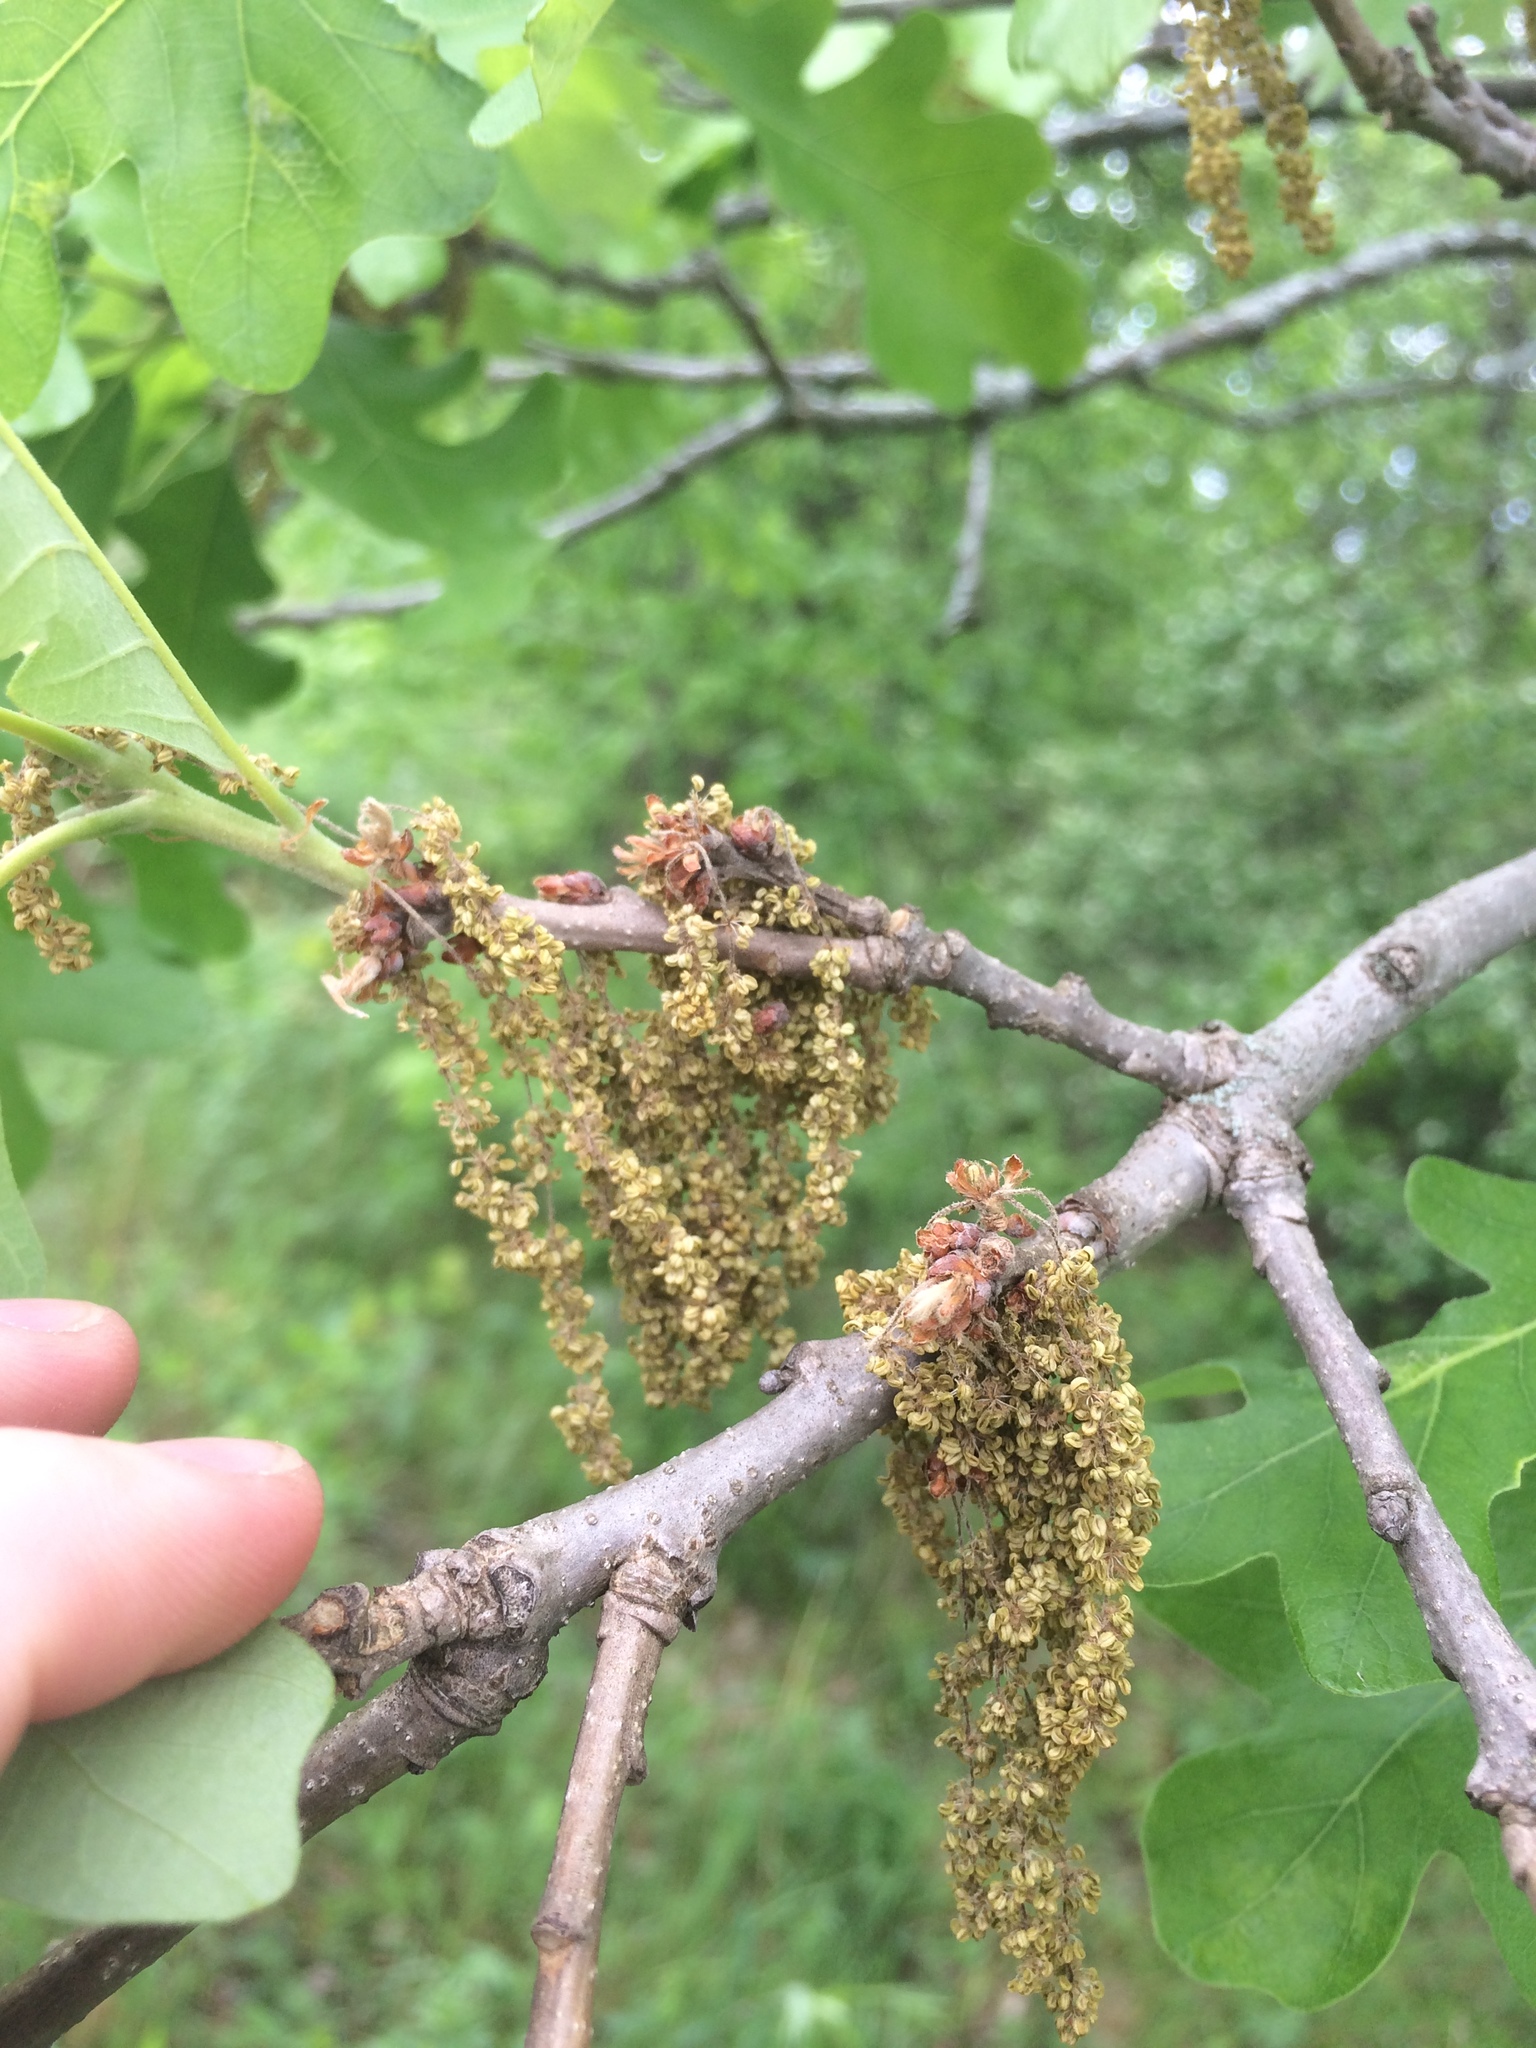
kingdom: Plantae
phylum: Tracheophyta
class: Magnoliopsida
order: Fagales
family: Fagaceae
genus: Quercus
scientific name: Quercus macrocarpa
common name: Bur oak
